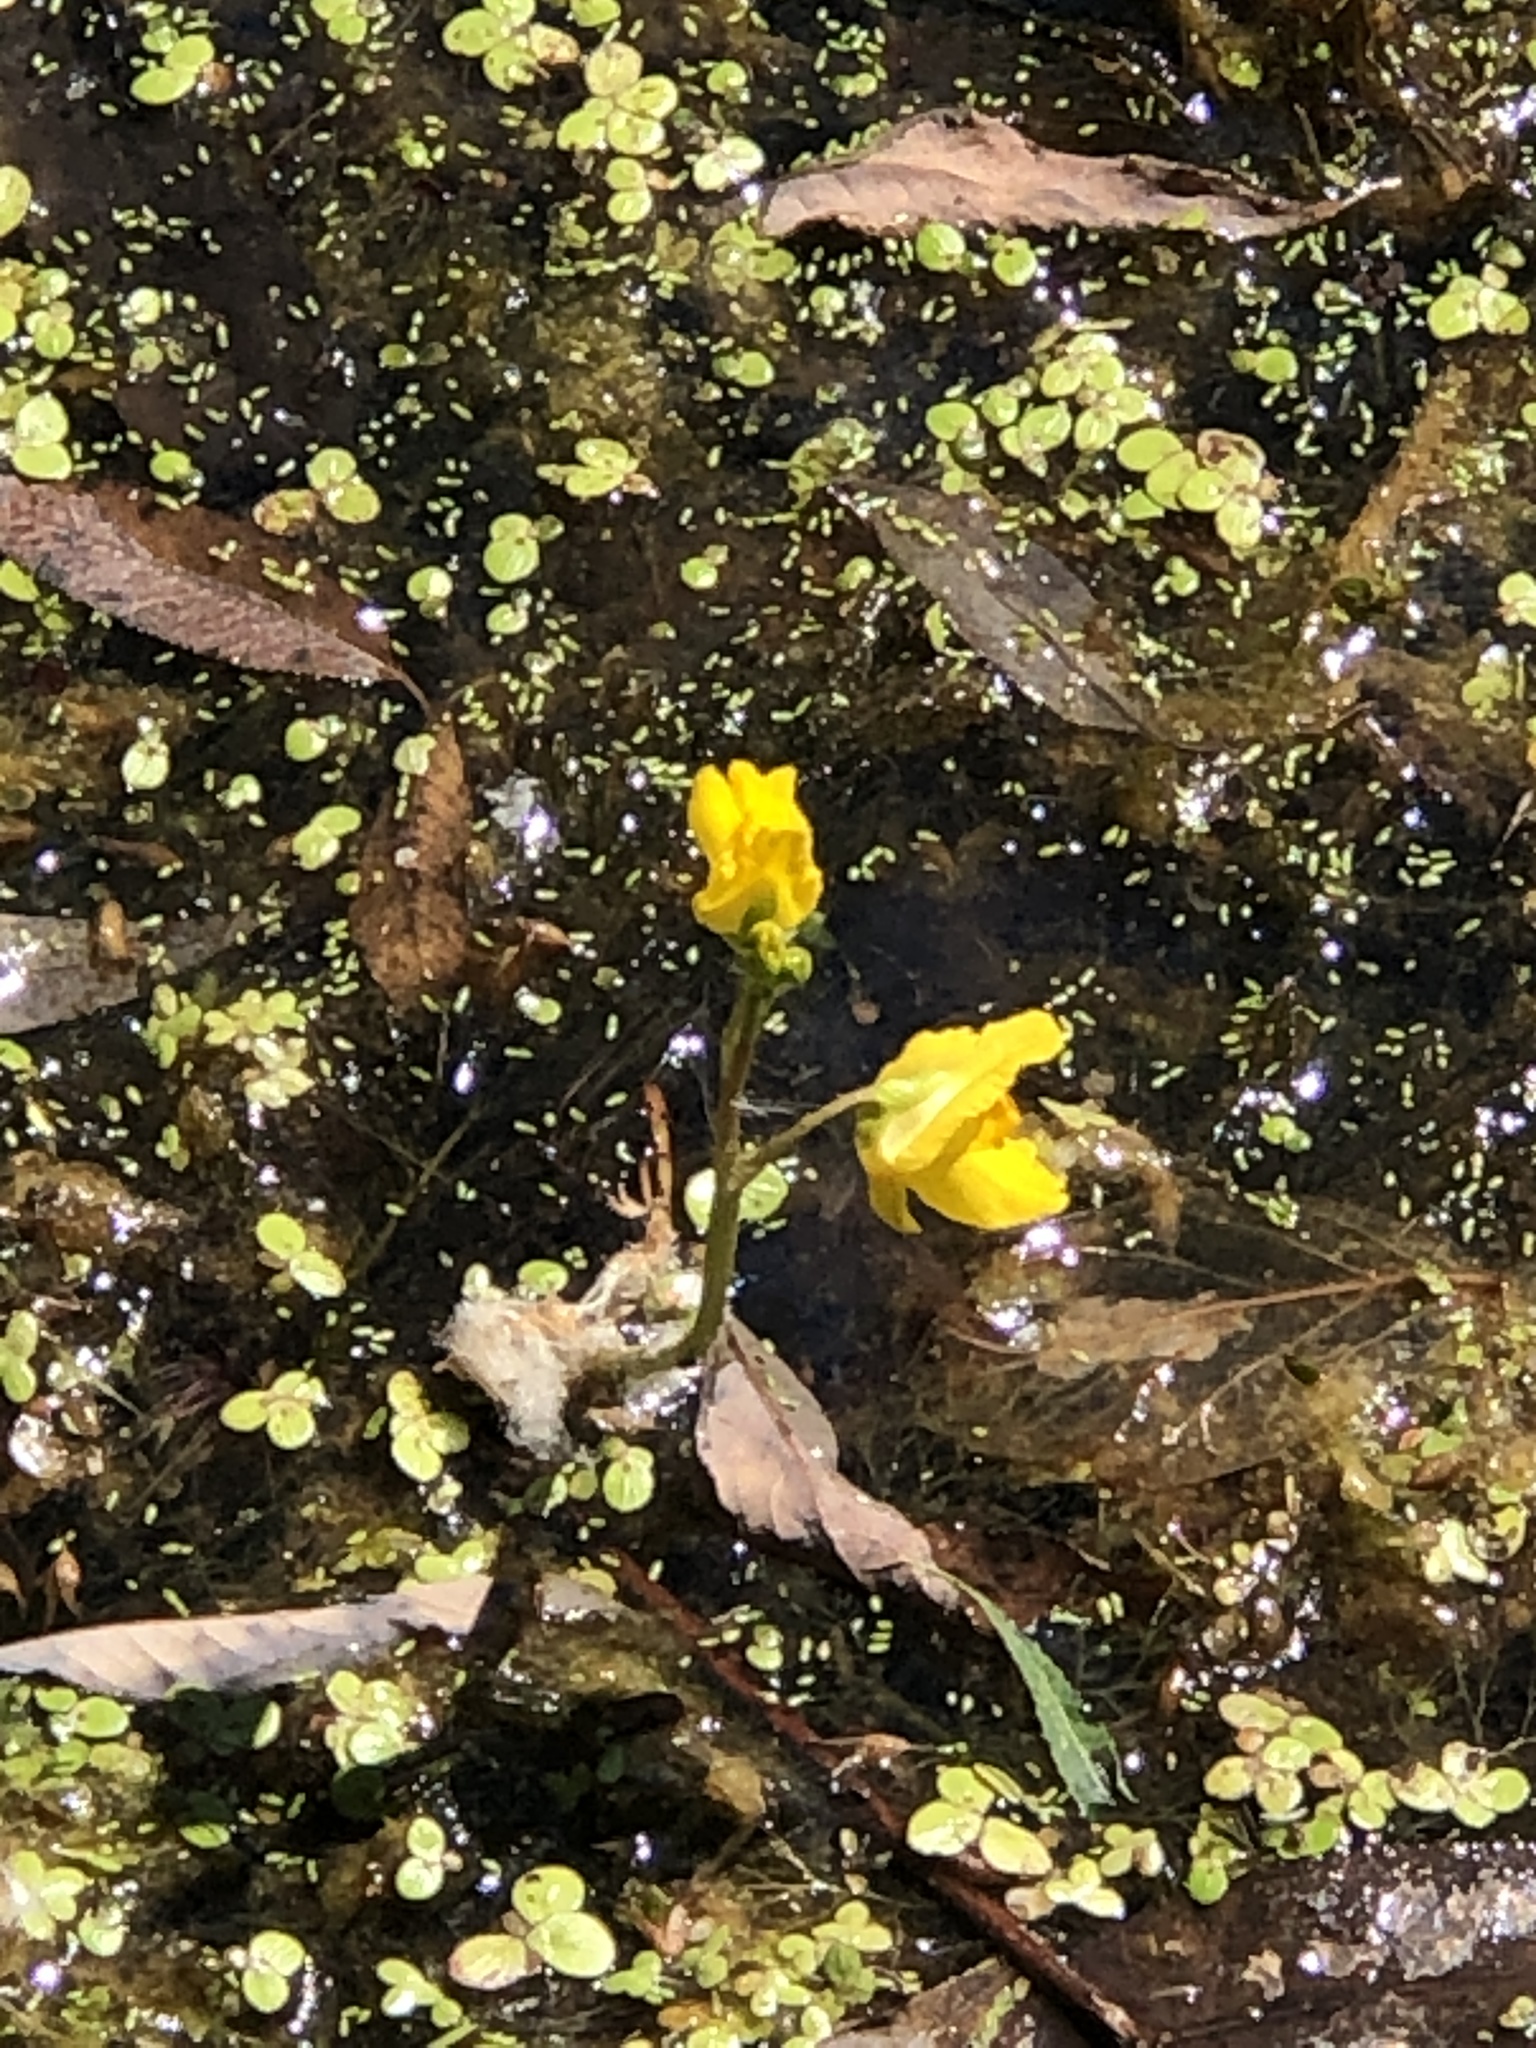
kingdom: Plantae
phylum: Tracheophyta
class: Magnoliopsida
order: Lamiales
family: Lentibulariaceae
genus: Utricularia
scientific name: Utricularia macrorhiza
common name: Common bladderwort
